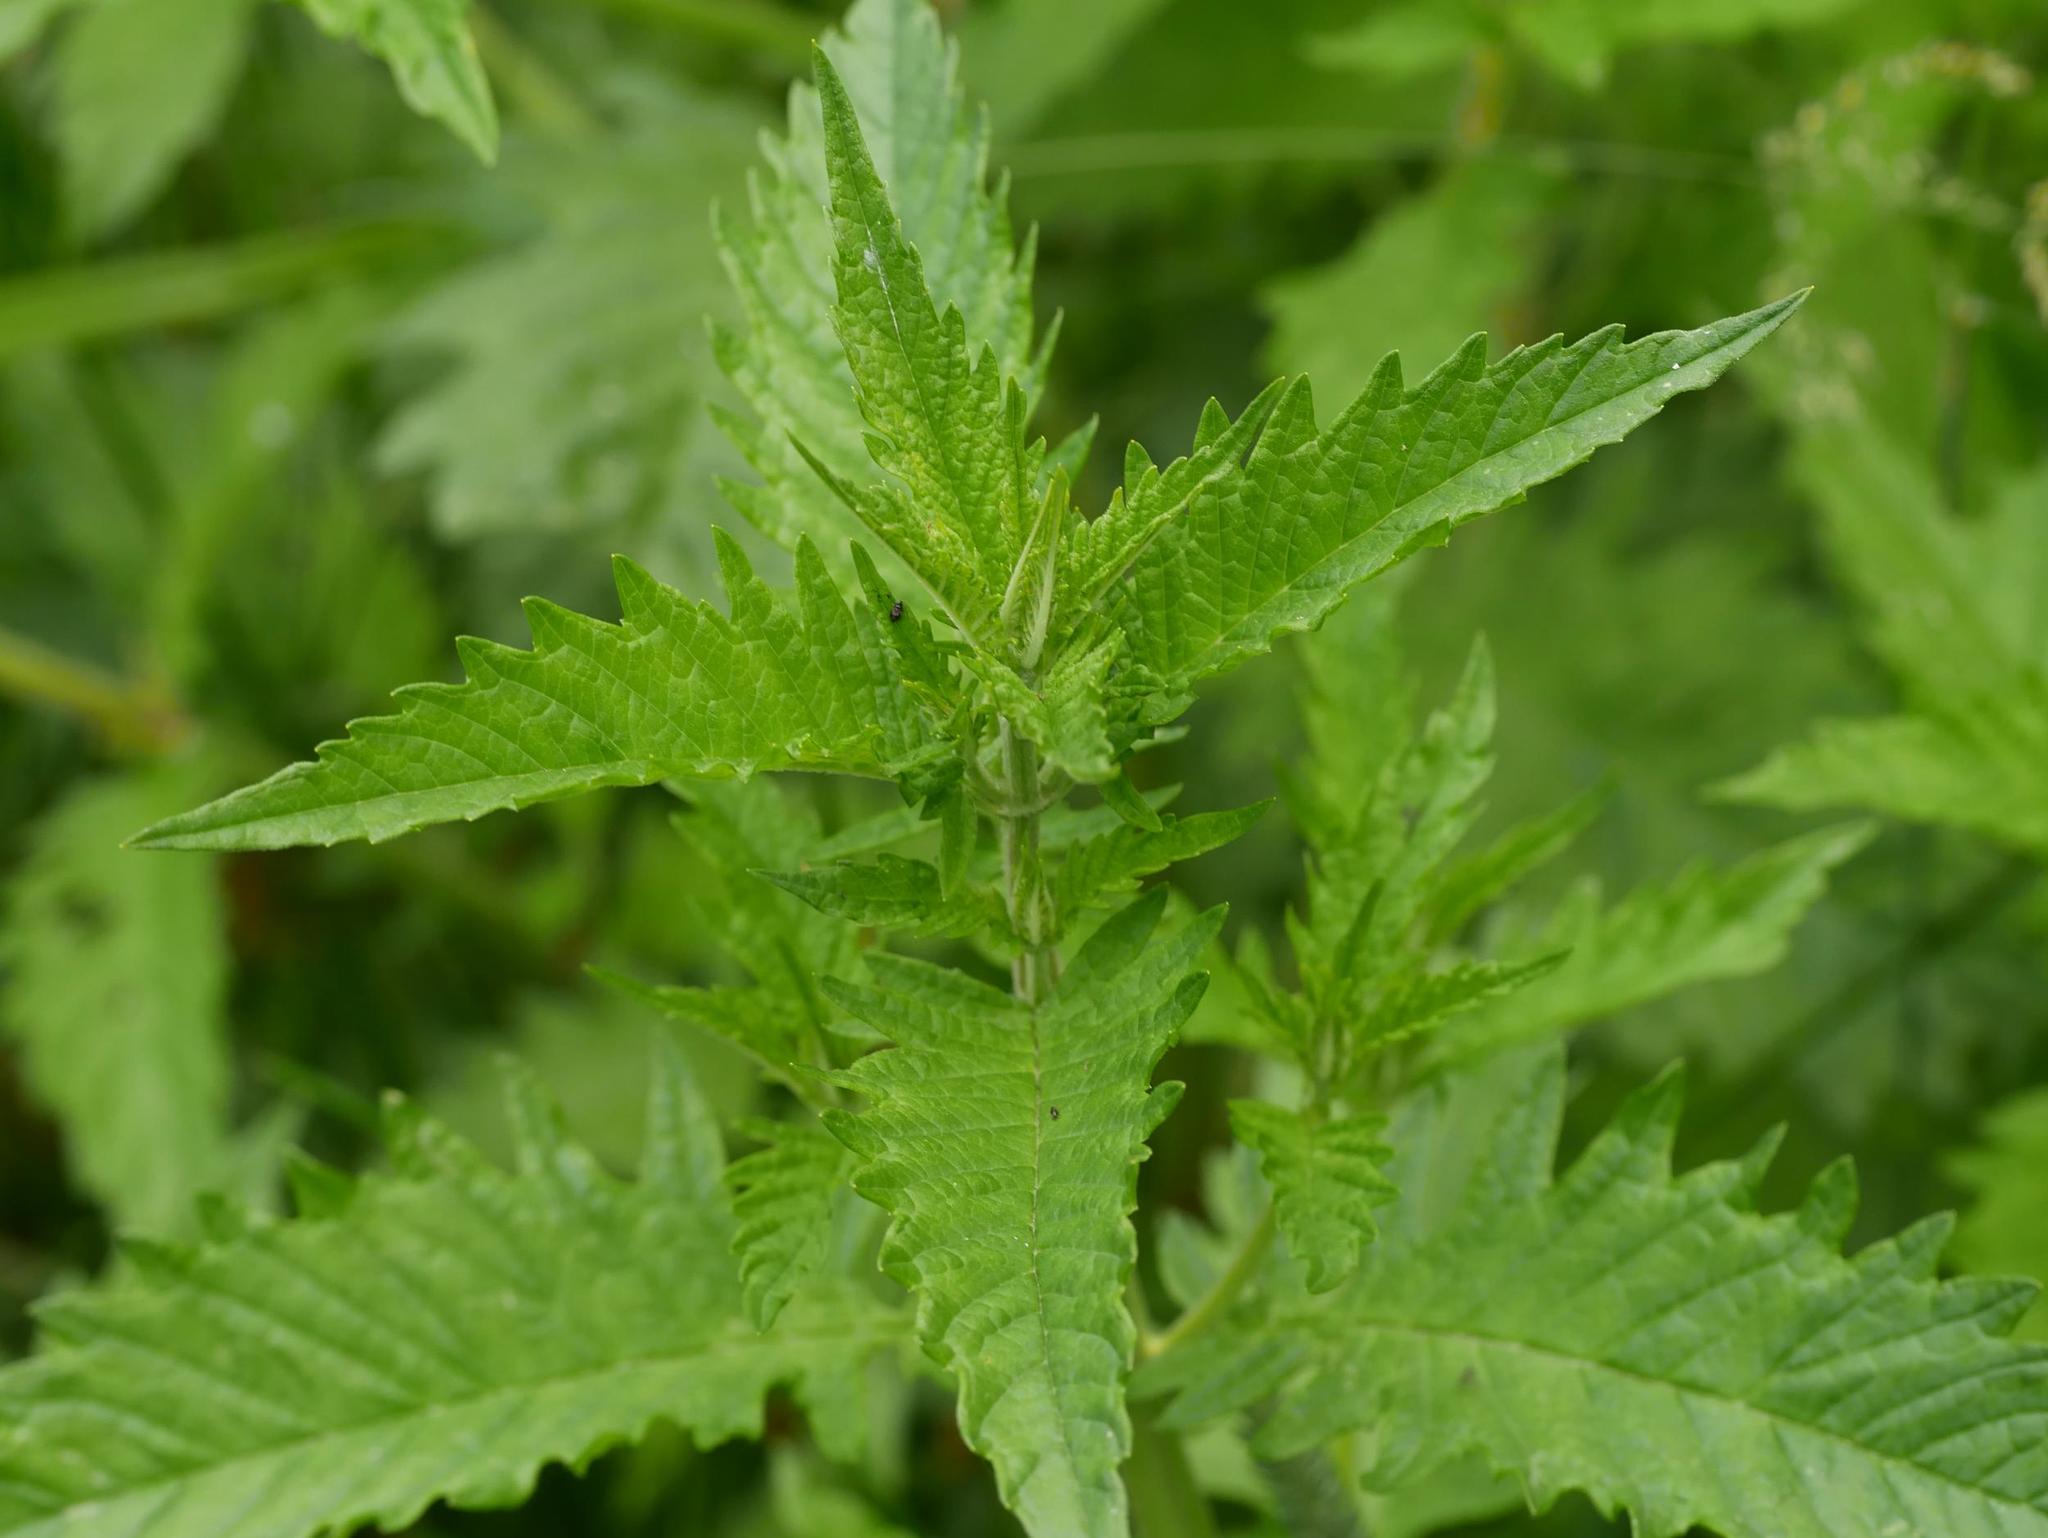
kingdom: Plantae
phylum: Tracheophyta
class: Magnoliopsida
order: Lamiales
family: Lamiaceae
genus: Lycopus
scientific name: Lycopus europaeus
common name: European bugleweed
